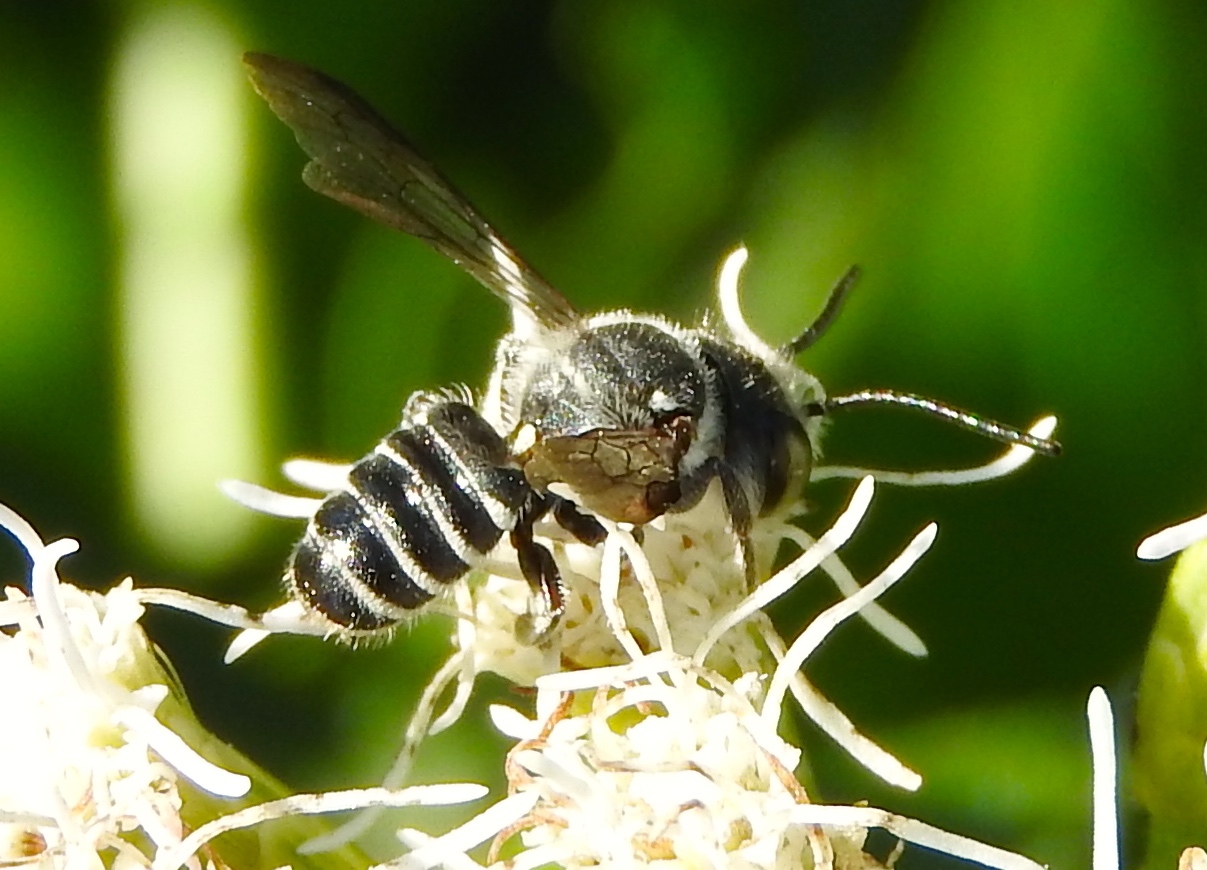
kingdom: Animalia
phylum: Arthropoda
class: Insecta
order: Hymenoptera
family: Megachilidae
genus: Megachile
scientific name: Megachile
